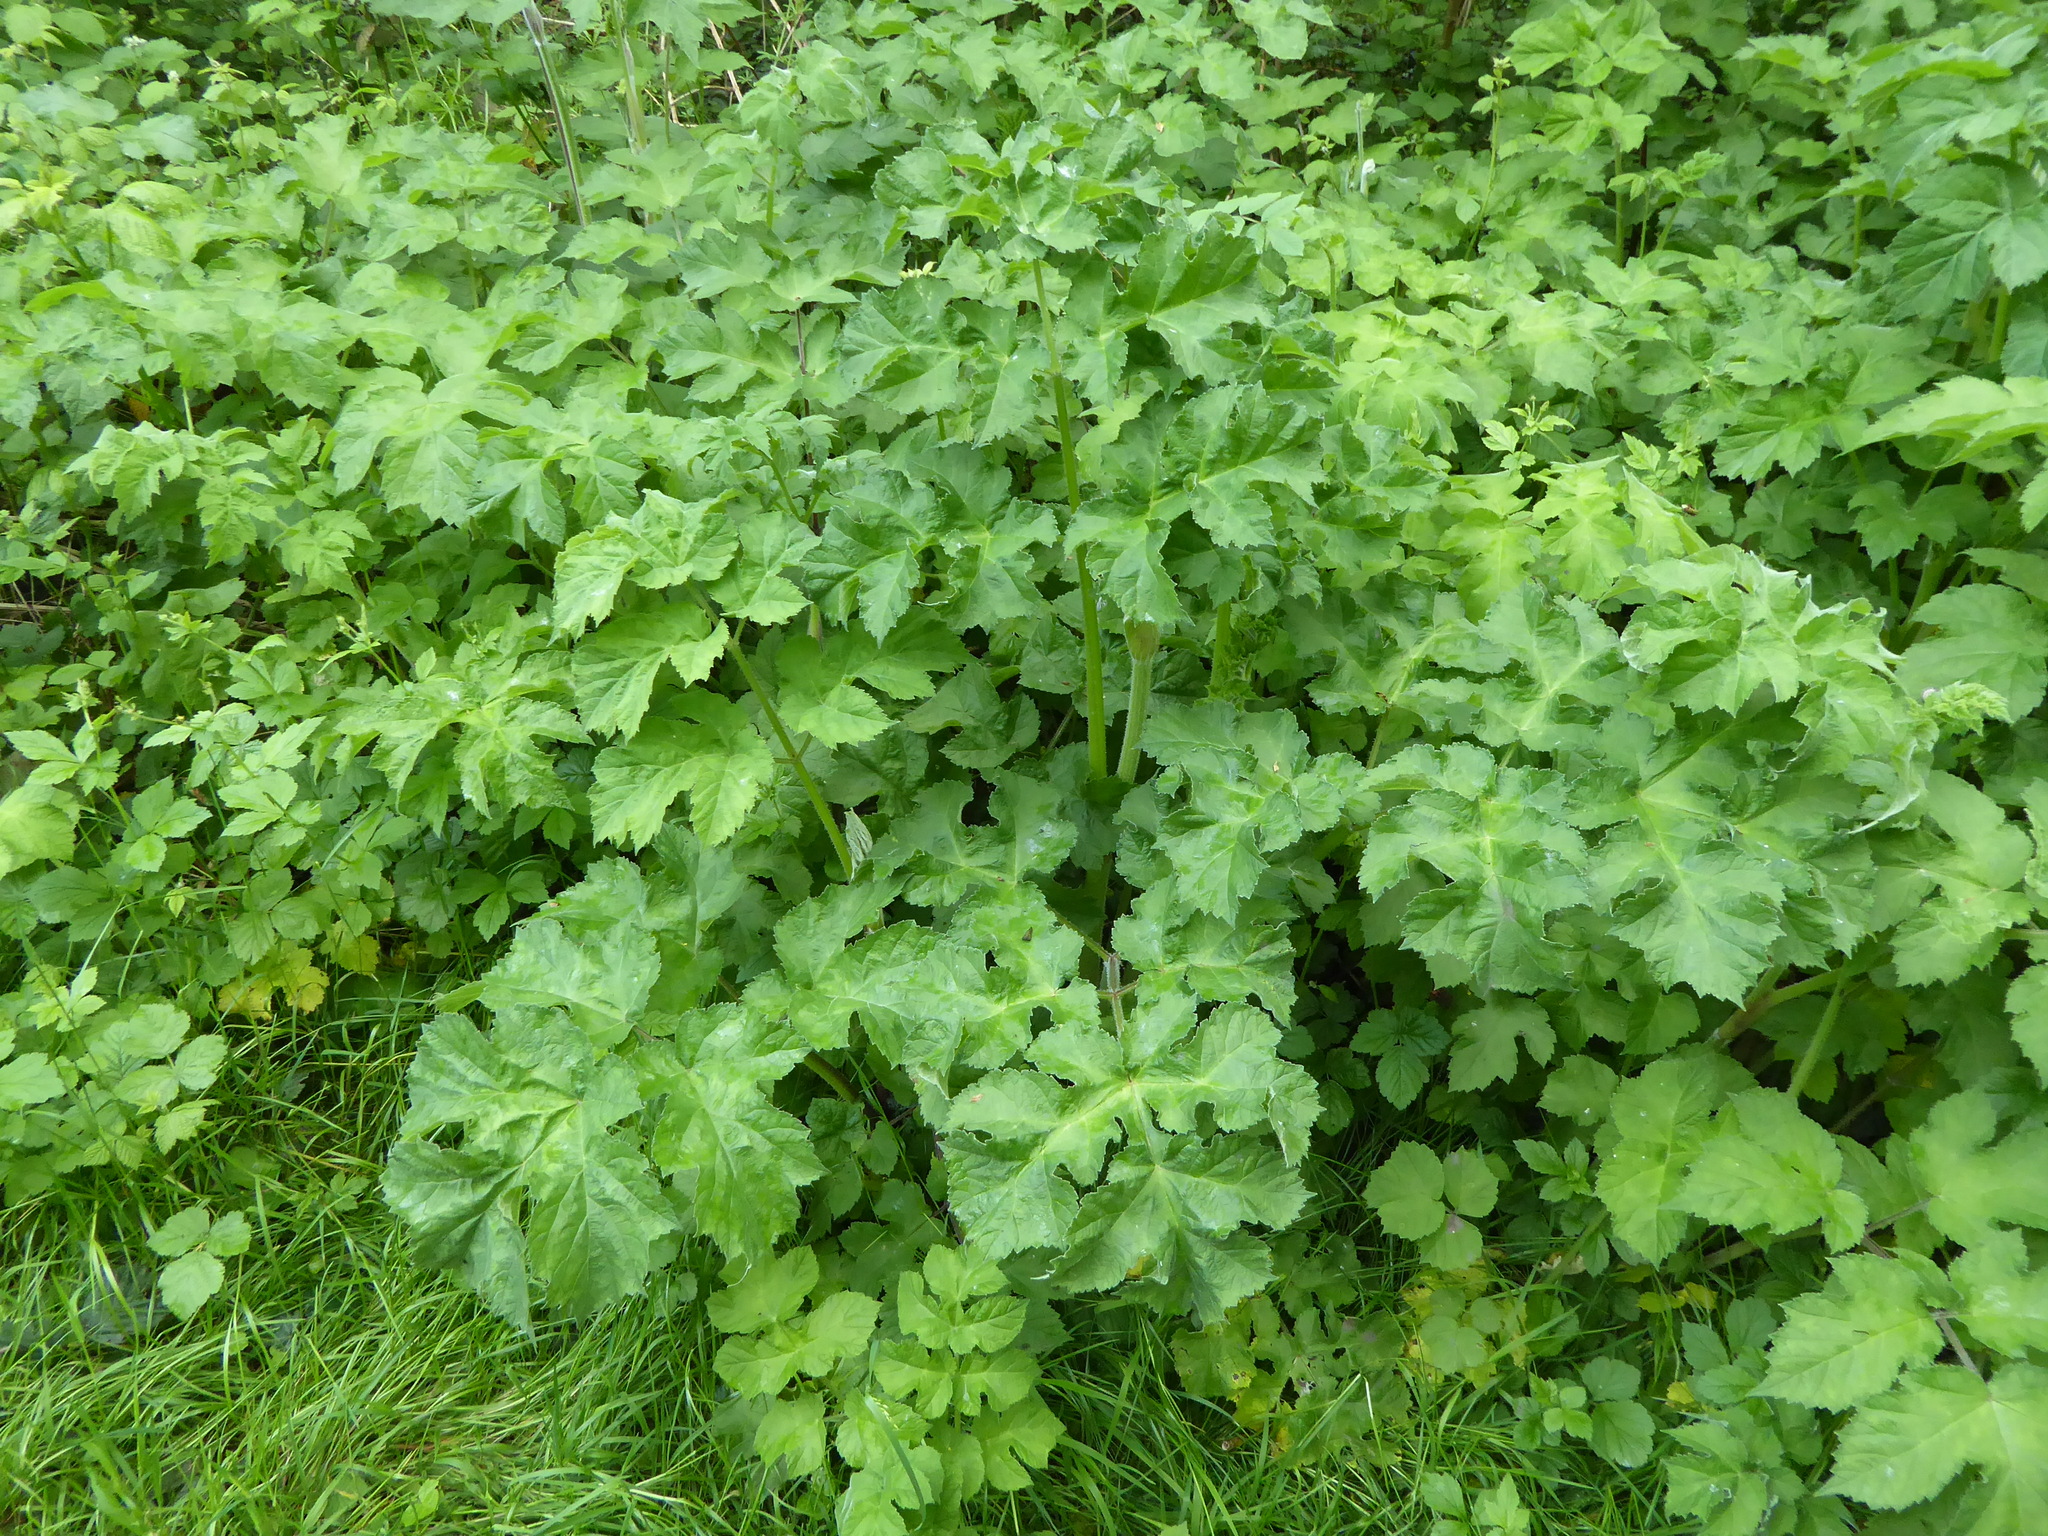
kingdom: Plantae
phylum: Tracheophyta
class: Magnoliopsida
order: Apiales
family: Apiaceae
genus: Heracleum
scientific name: Heracleum sphondylium
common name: Hogweed
